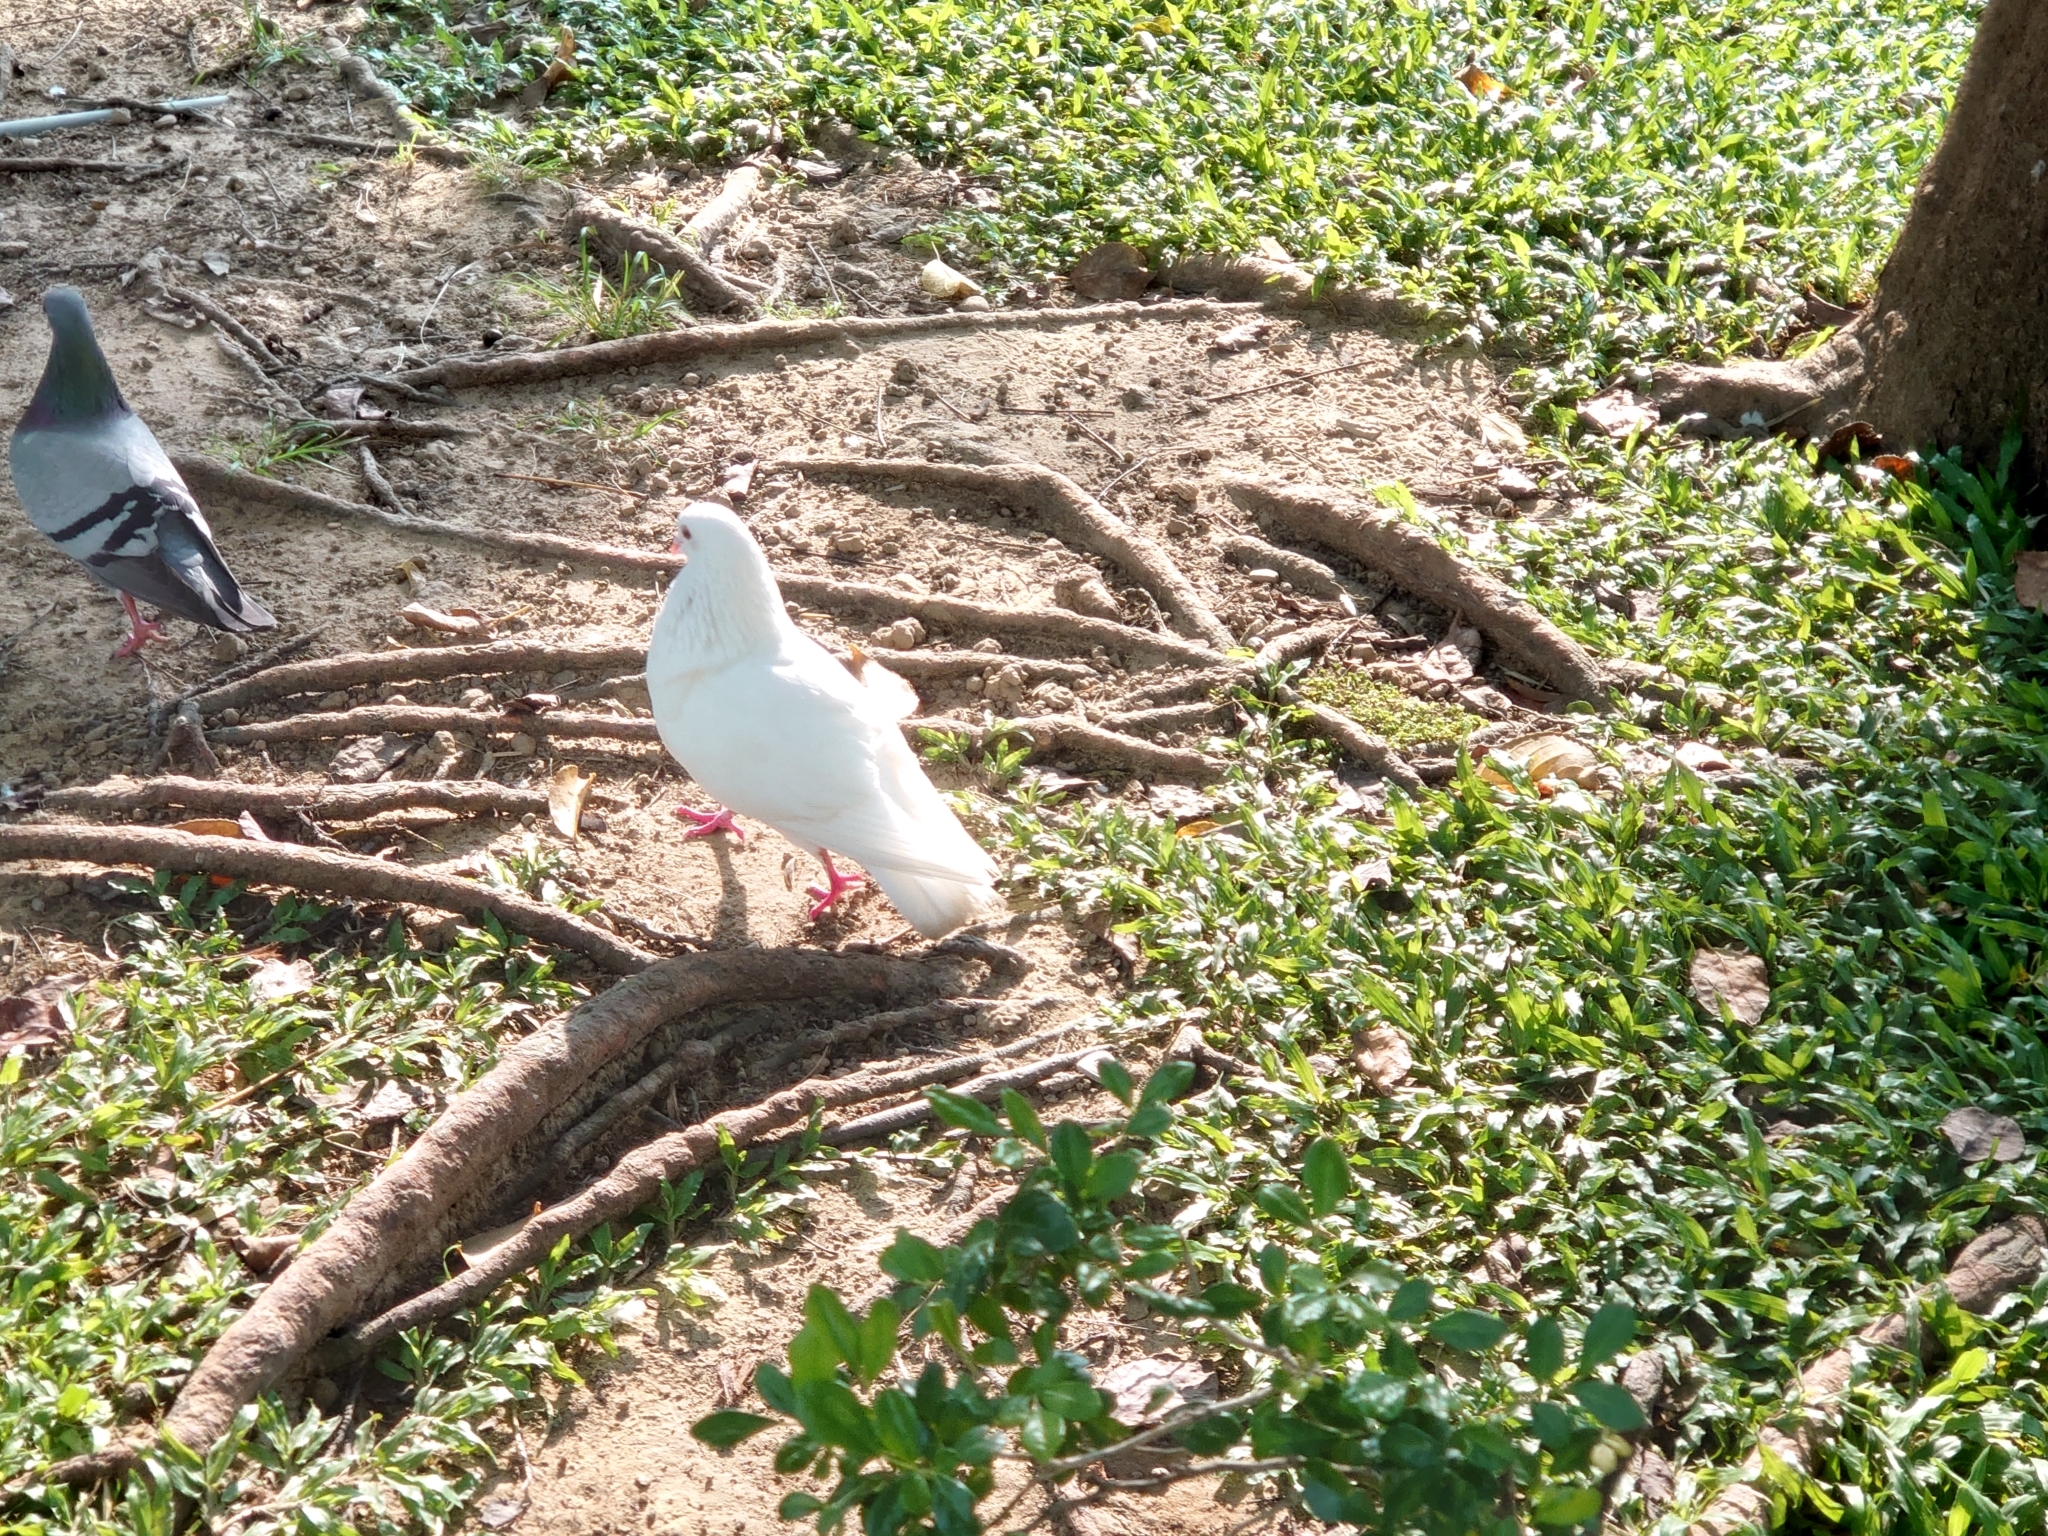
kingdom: Animalia
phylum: Chordata
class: Aves
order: Columbiformes
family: Columbidae
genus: Columba
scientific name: Columba livia
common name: Rock pigeon
